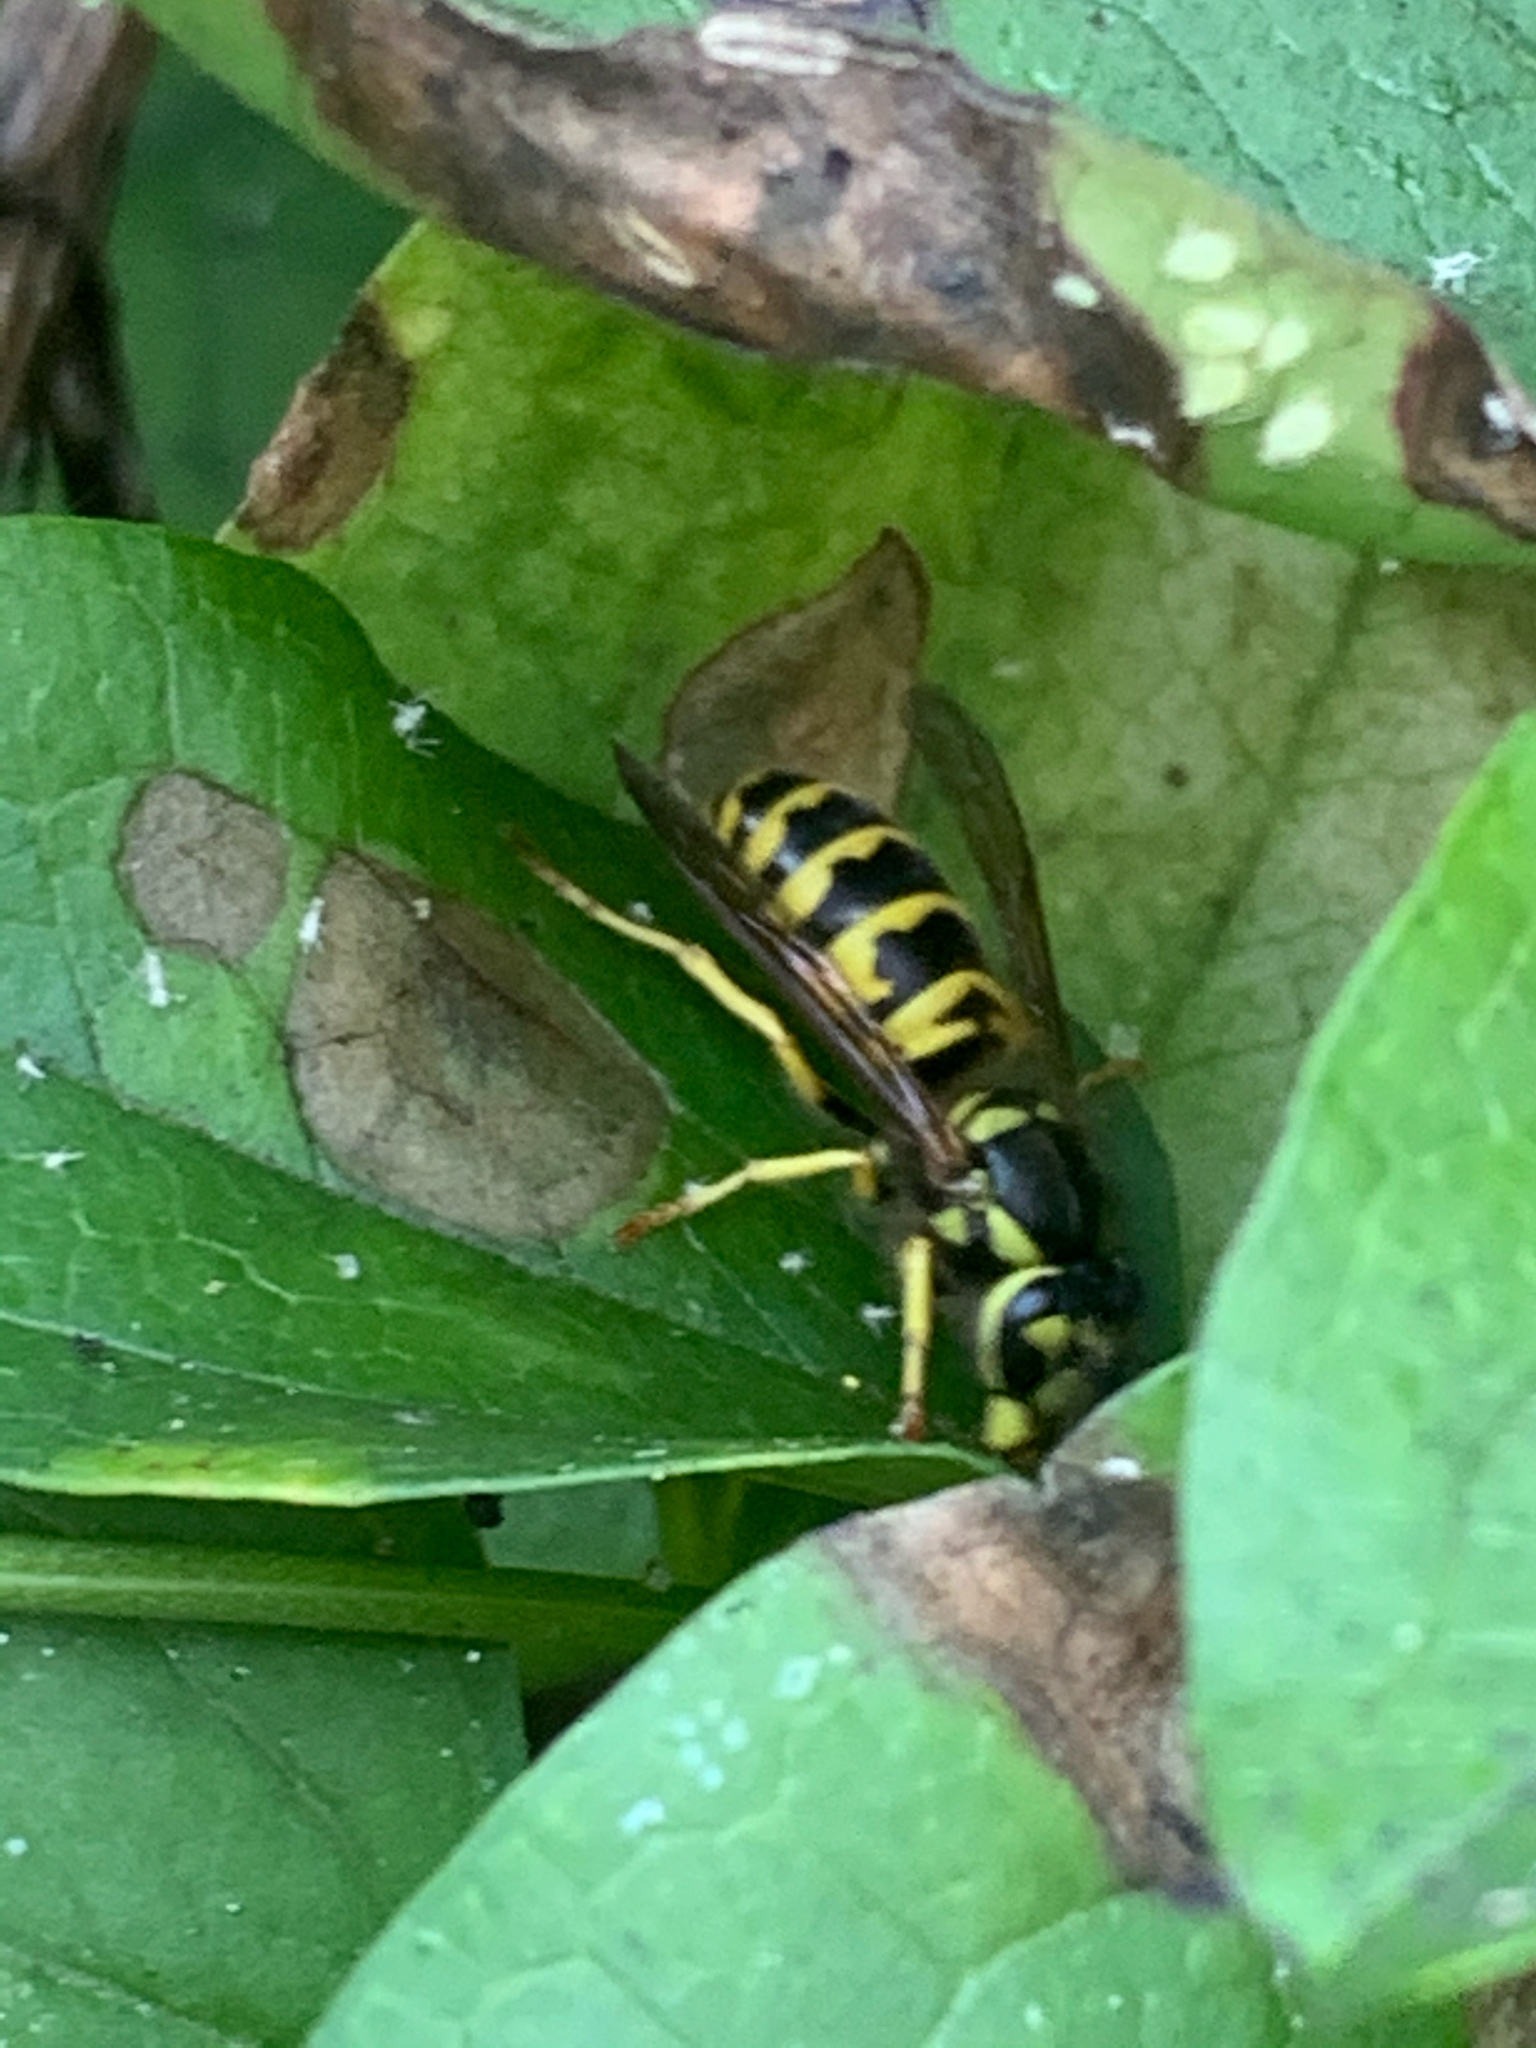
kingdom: Animalia
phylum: Arthropoda
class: Insecta
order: Hymenoptera
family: Vespidae
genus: Vespula
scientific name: Vespula maculifrons
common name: Eastern yellowjacket
